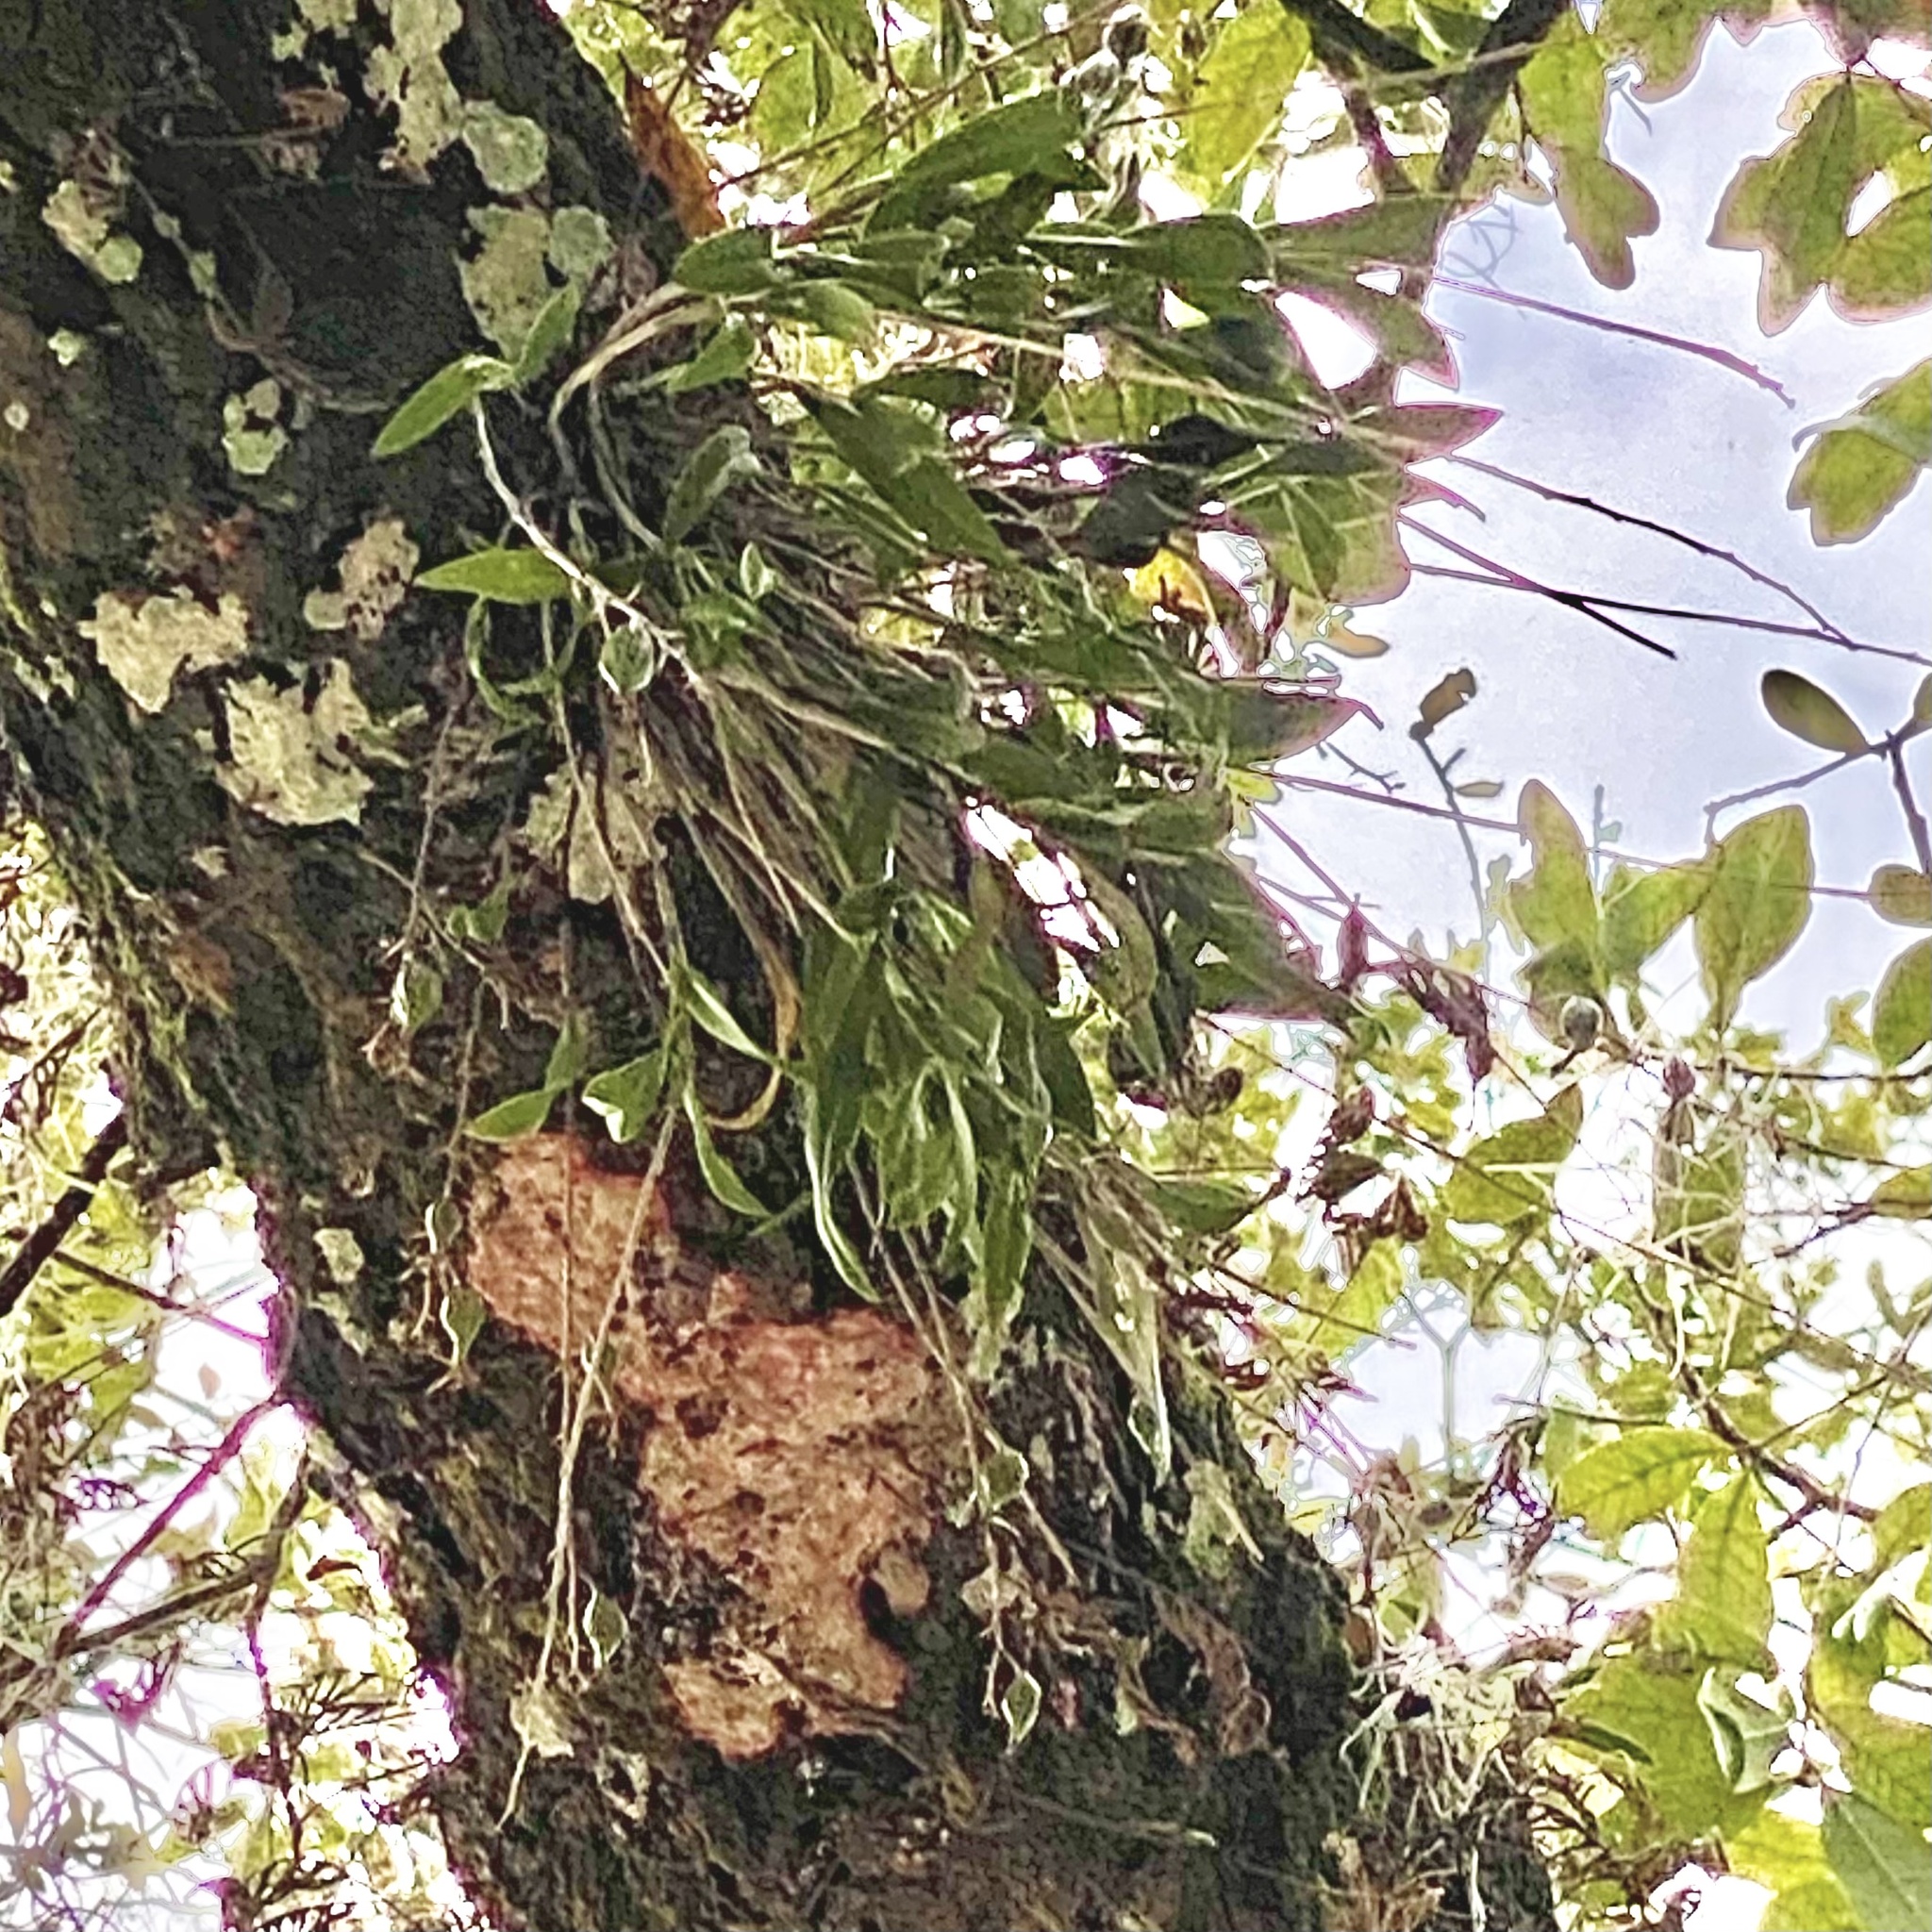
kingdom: Plantae
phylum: Tracheophyta
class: Liliopsida
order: Asparagales
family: Orchidaceae
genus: Epidendrum
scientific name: Epidendrum conopseum
